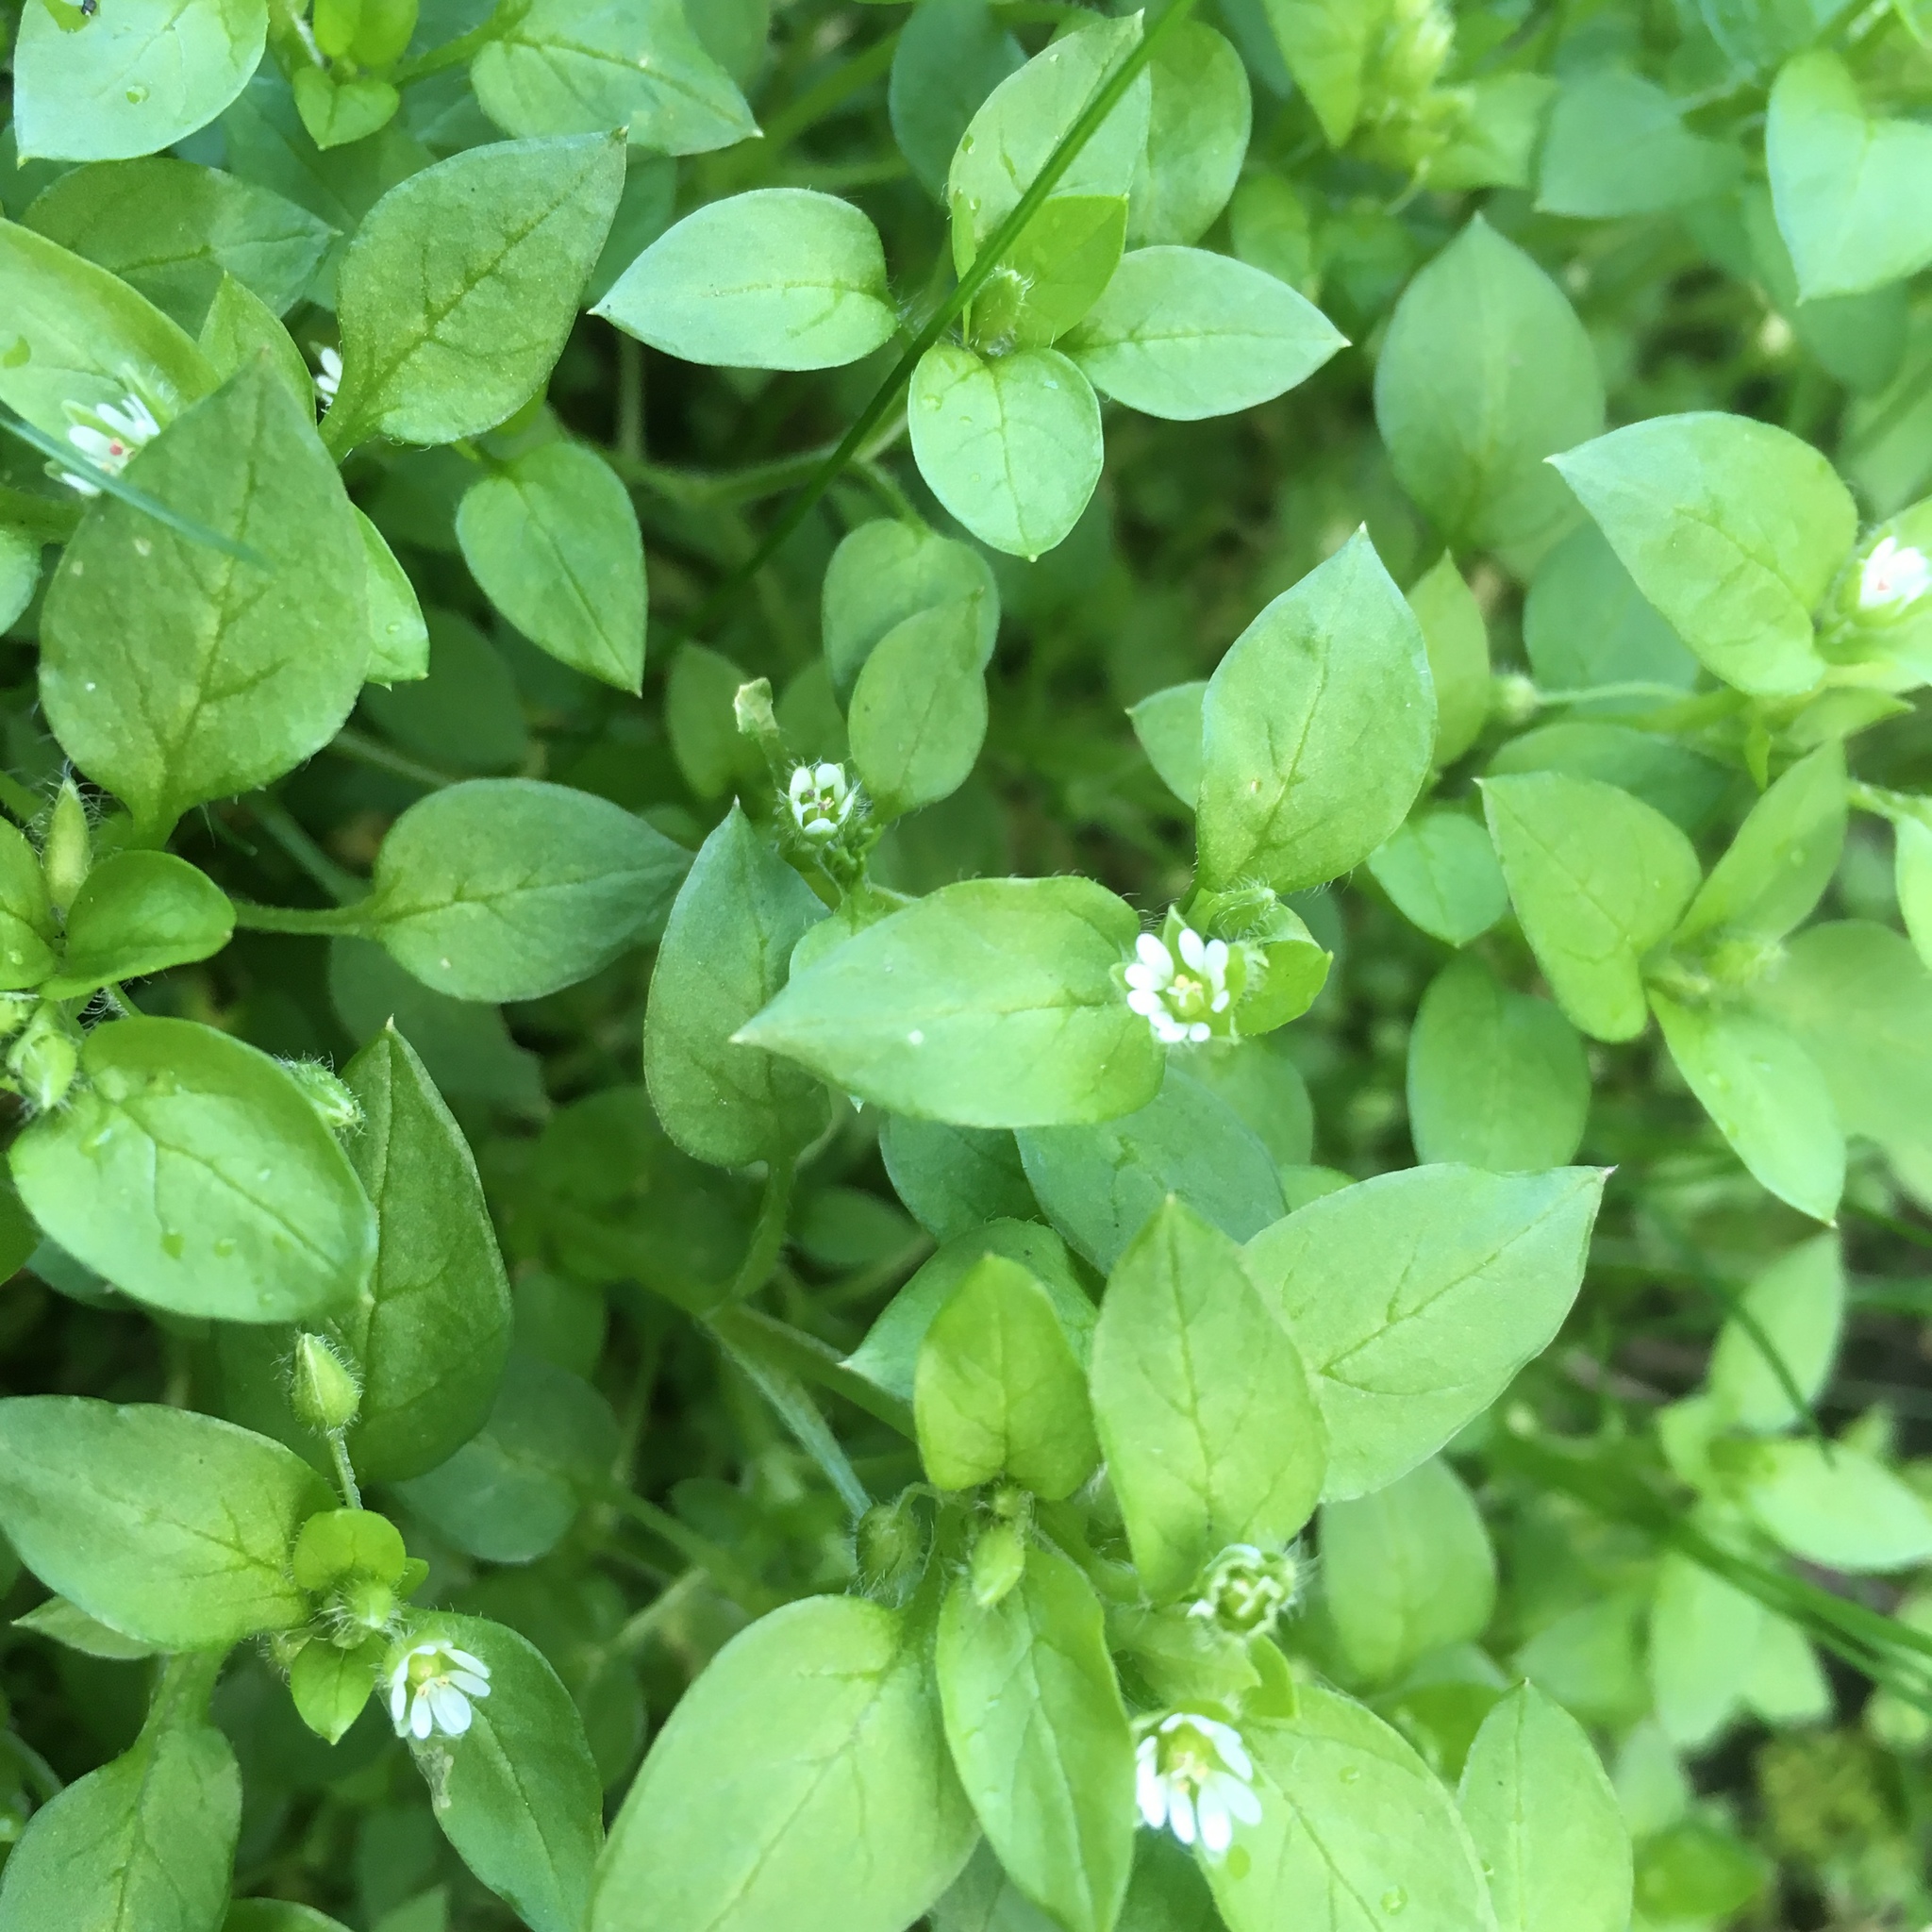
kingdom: Plantae
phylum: Tracheophyta
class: Magnoliopsida
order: Caryophyllales
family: Caryophyllaceae
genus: Stellaria
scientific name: Stellaria media
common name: Common chickweed
